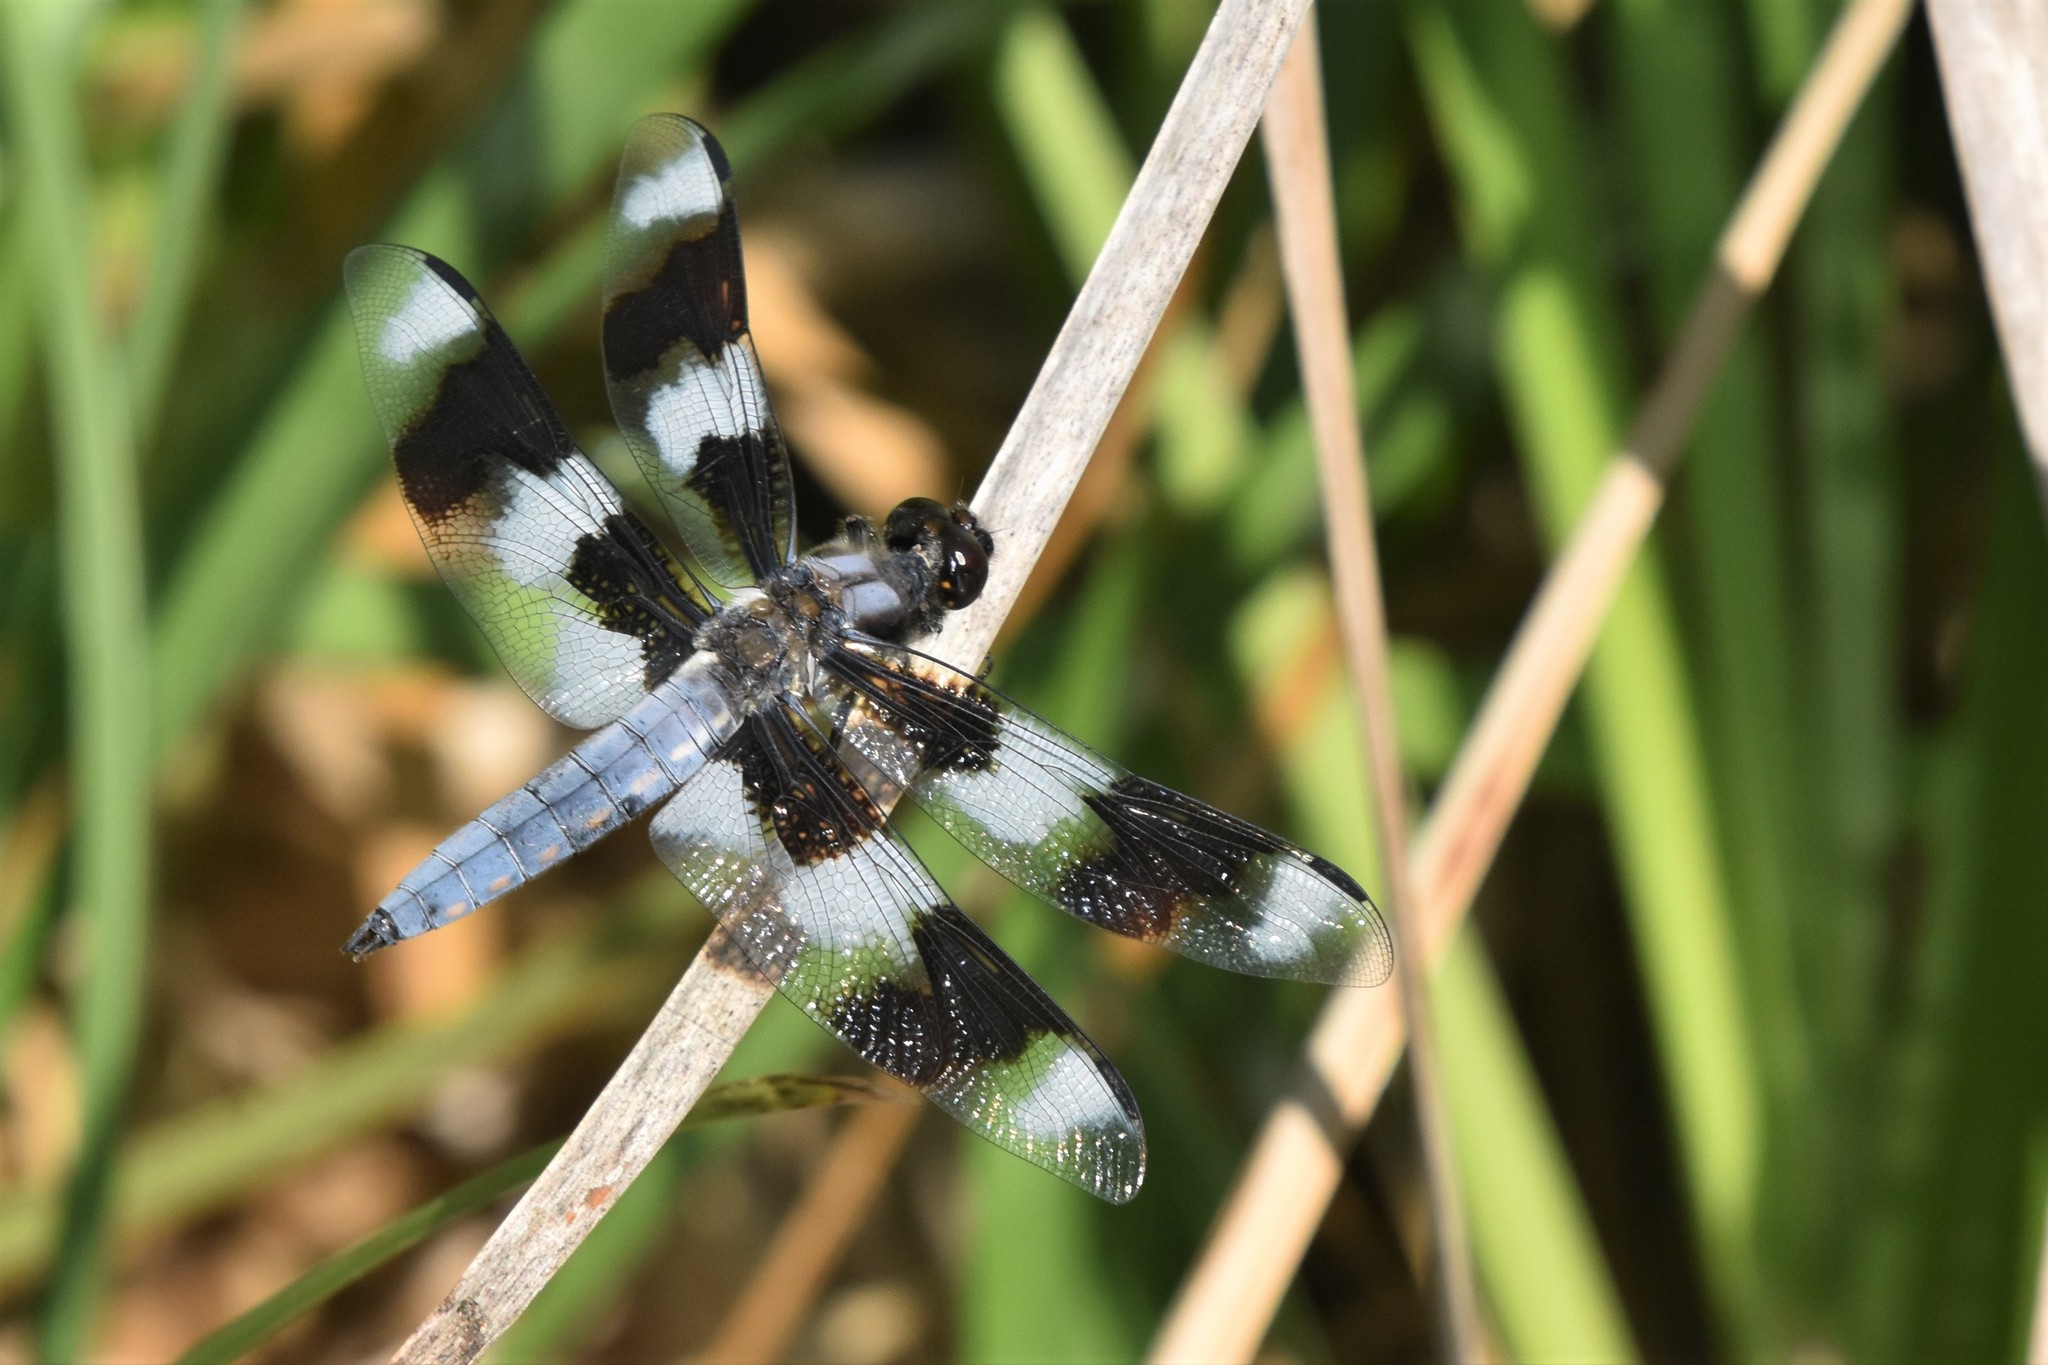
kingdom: Animalia
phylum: Arthropoda
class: Insecta
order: Odonata
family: Libellulidae
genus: Libellula
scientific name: Libellula forensis
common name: Eight-spotted skimmer
